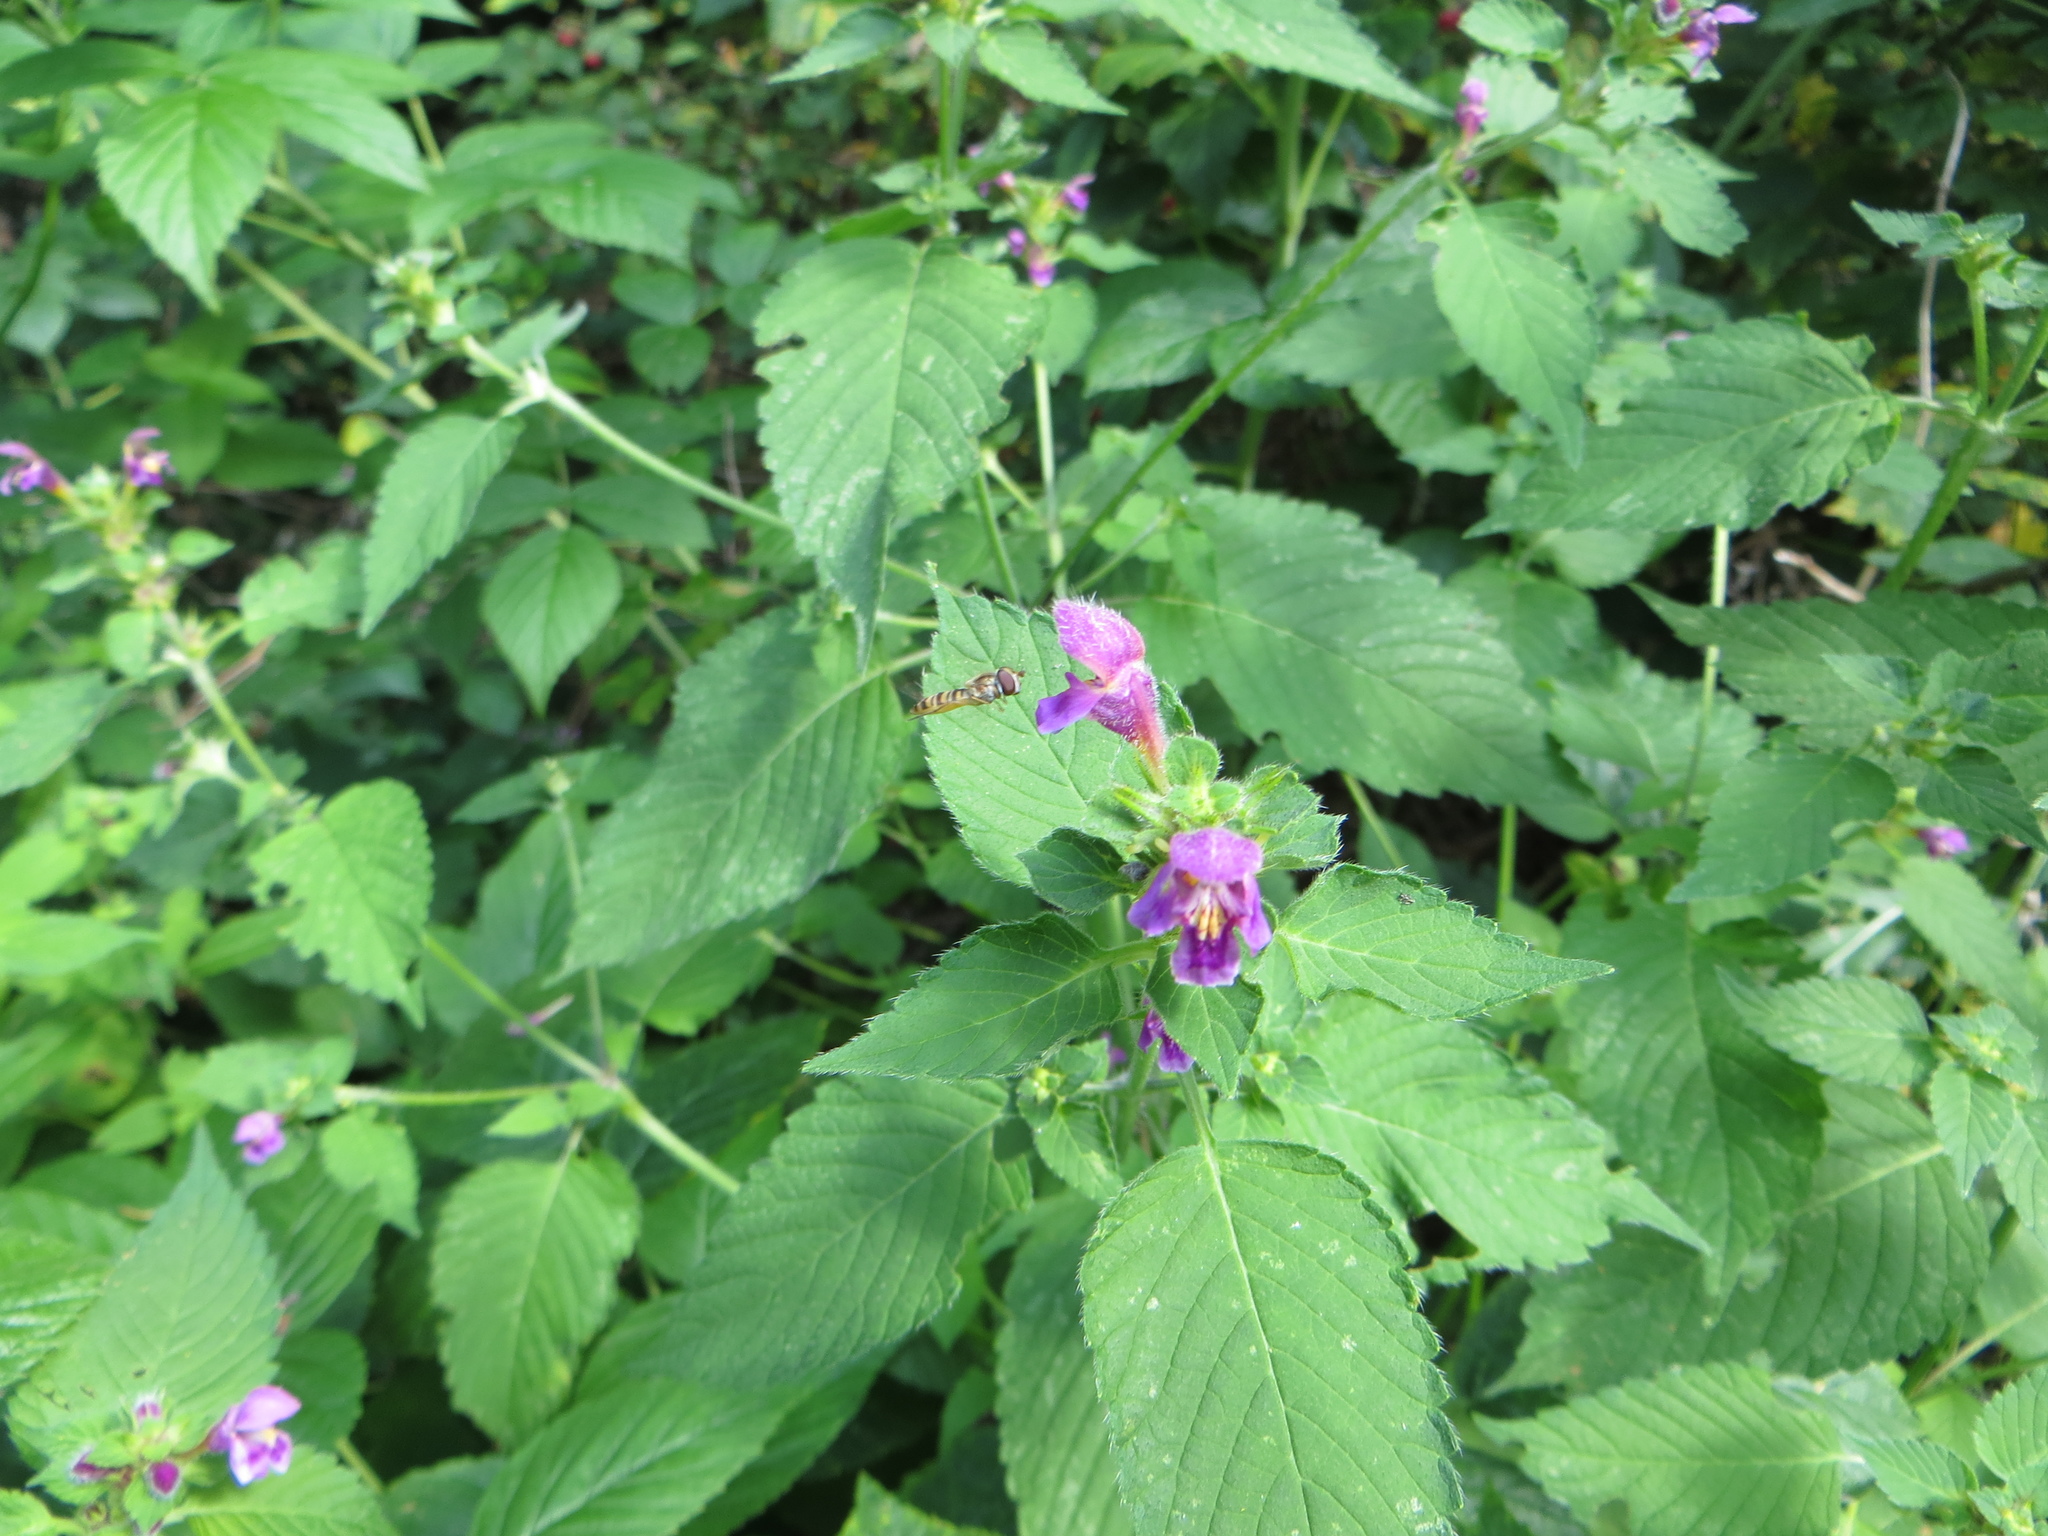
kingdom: Animalia
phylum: Arthropoda
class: Insecta
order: Diptera
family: Syrphidae
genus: Episyrphus
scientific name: Episyrphus balteatus
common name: Marmalade hoverfly
